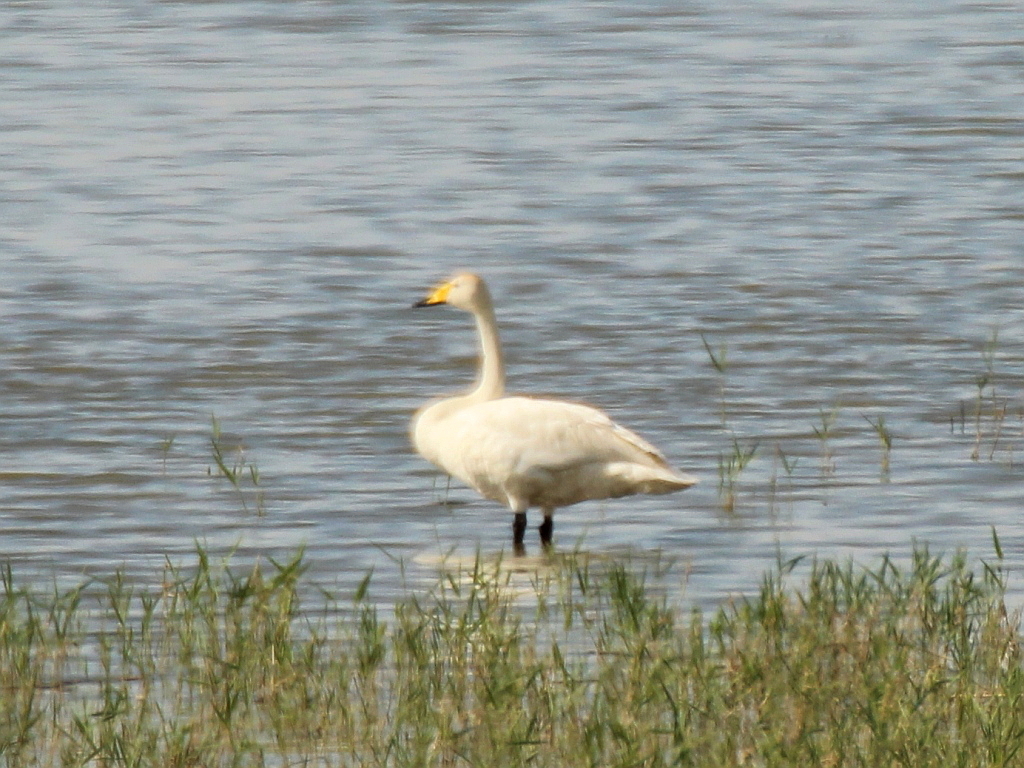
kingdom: Animalia
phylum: Chordata
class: Aves
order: Anseriformes
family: Anatidae
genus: Cygnus
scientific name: Cygnus cygnus
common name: Whooper swan
